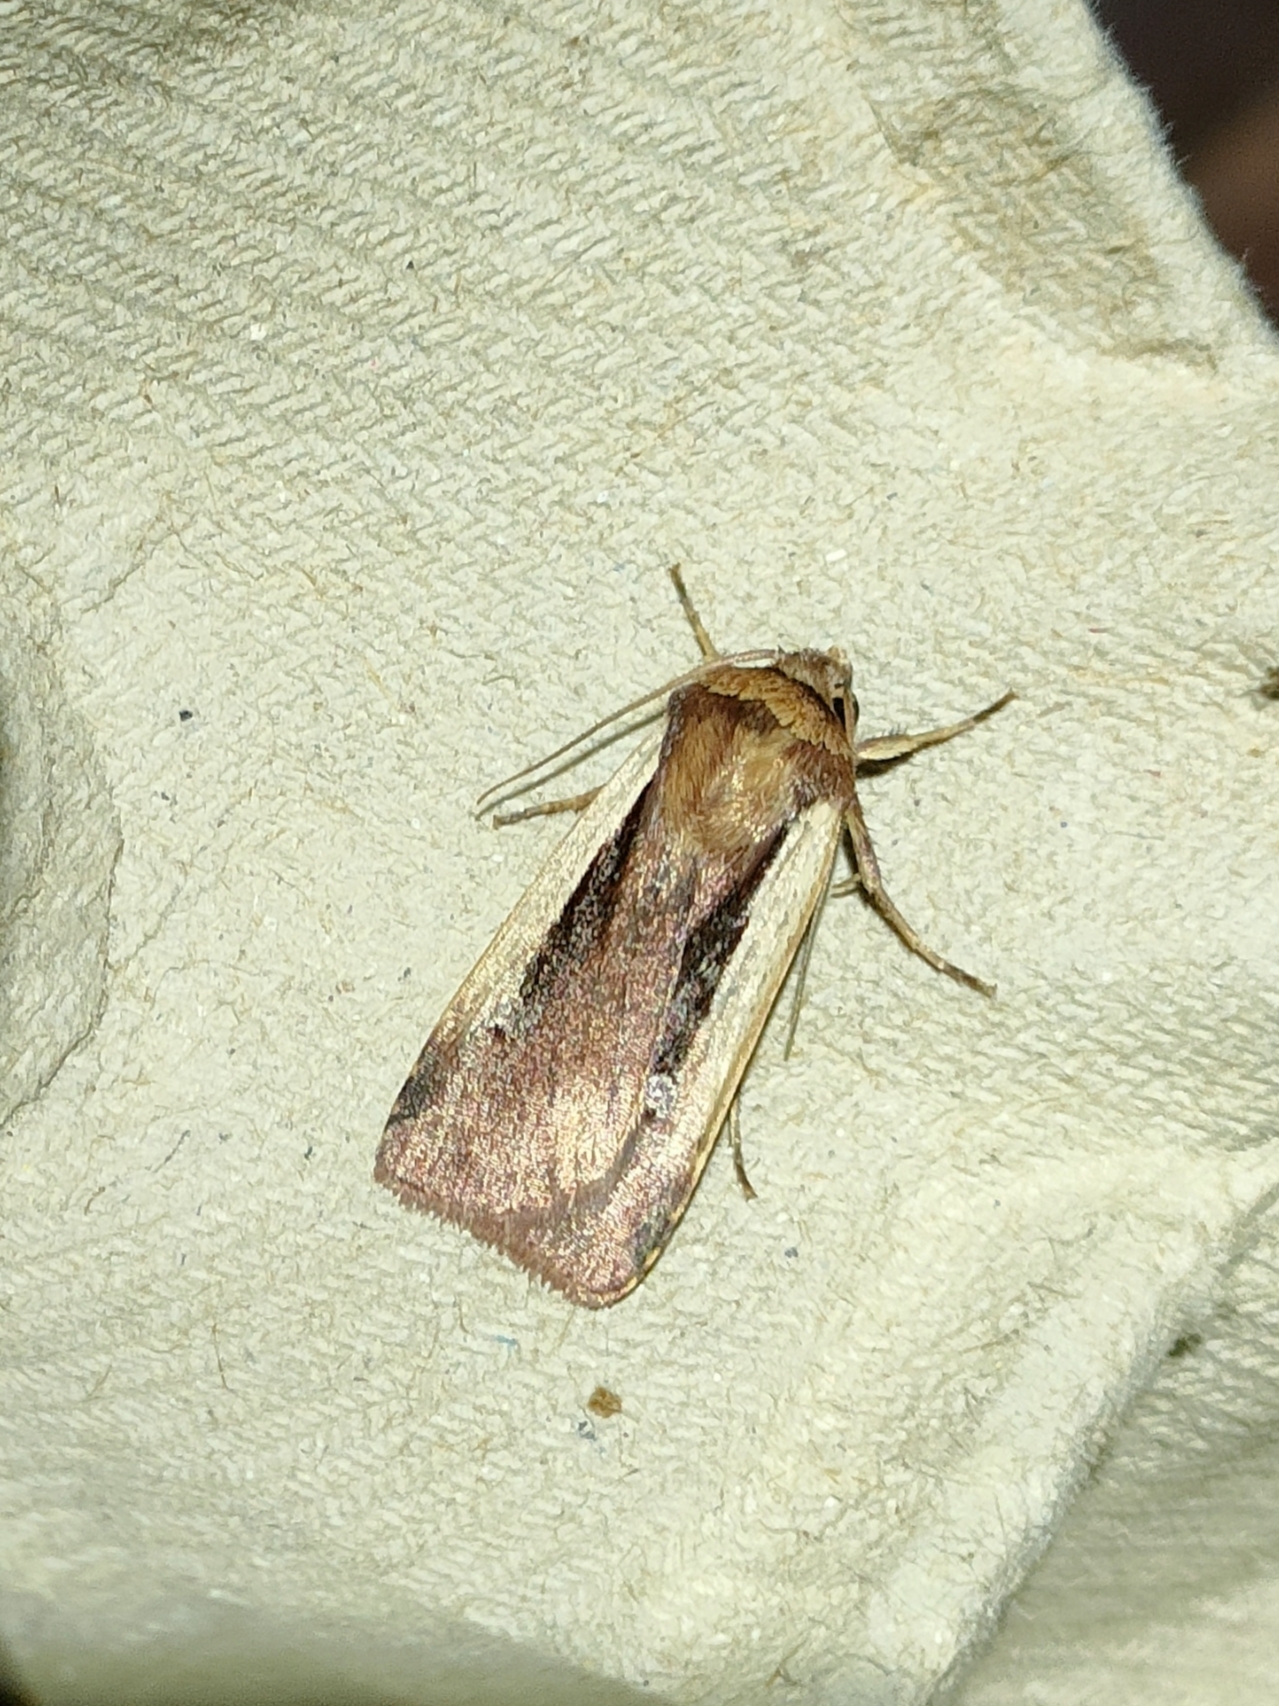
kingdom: Animalia
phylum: Arthropoda
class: Insecta
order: Lepidoptera
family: Noctuidae
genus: Ochropleura
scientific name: Ochropleura plecta
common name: Flame shoulder
